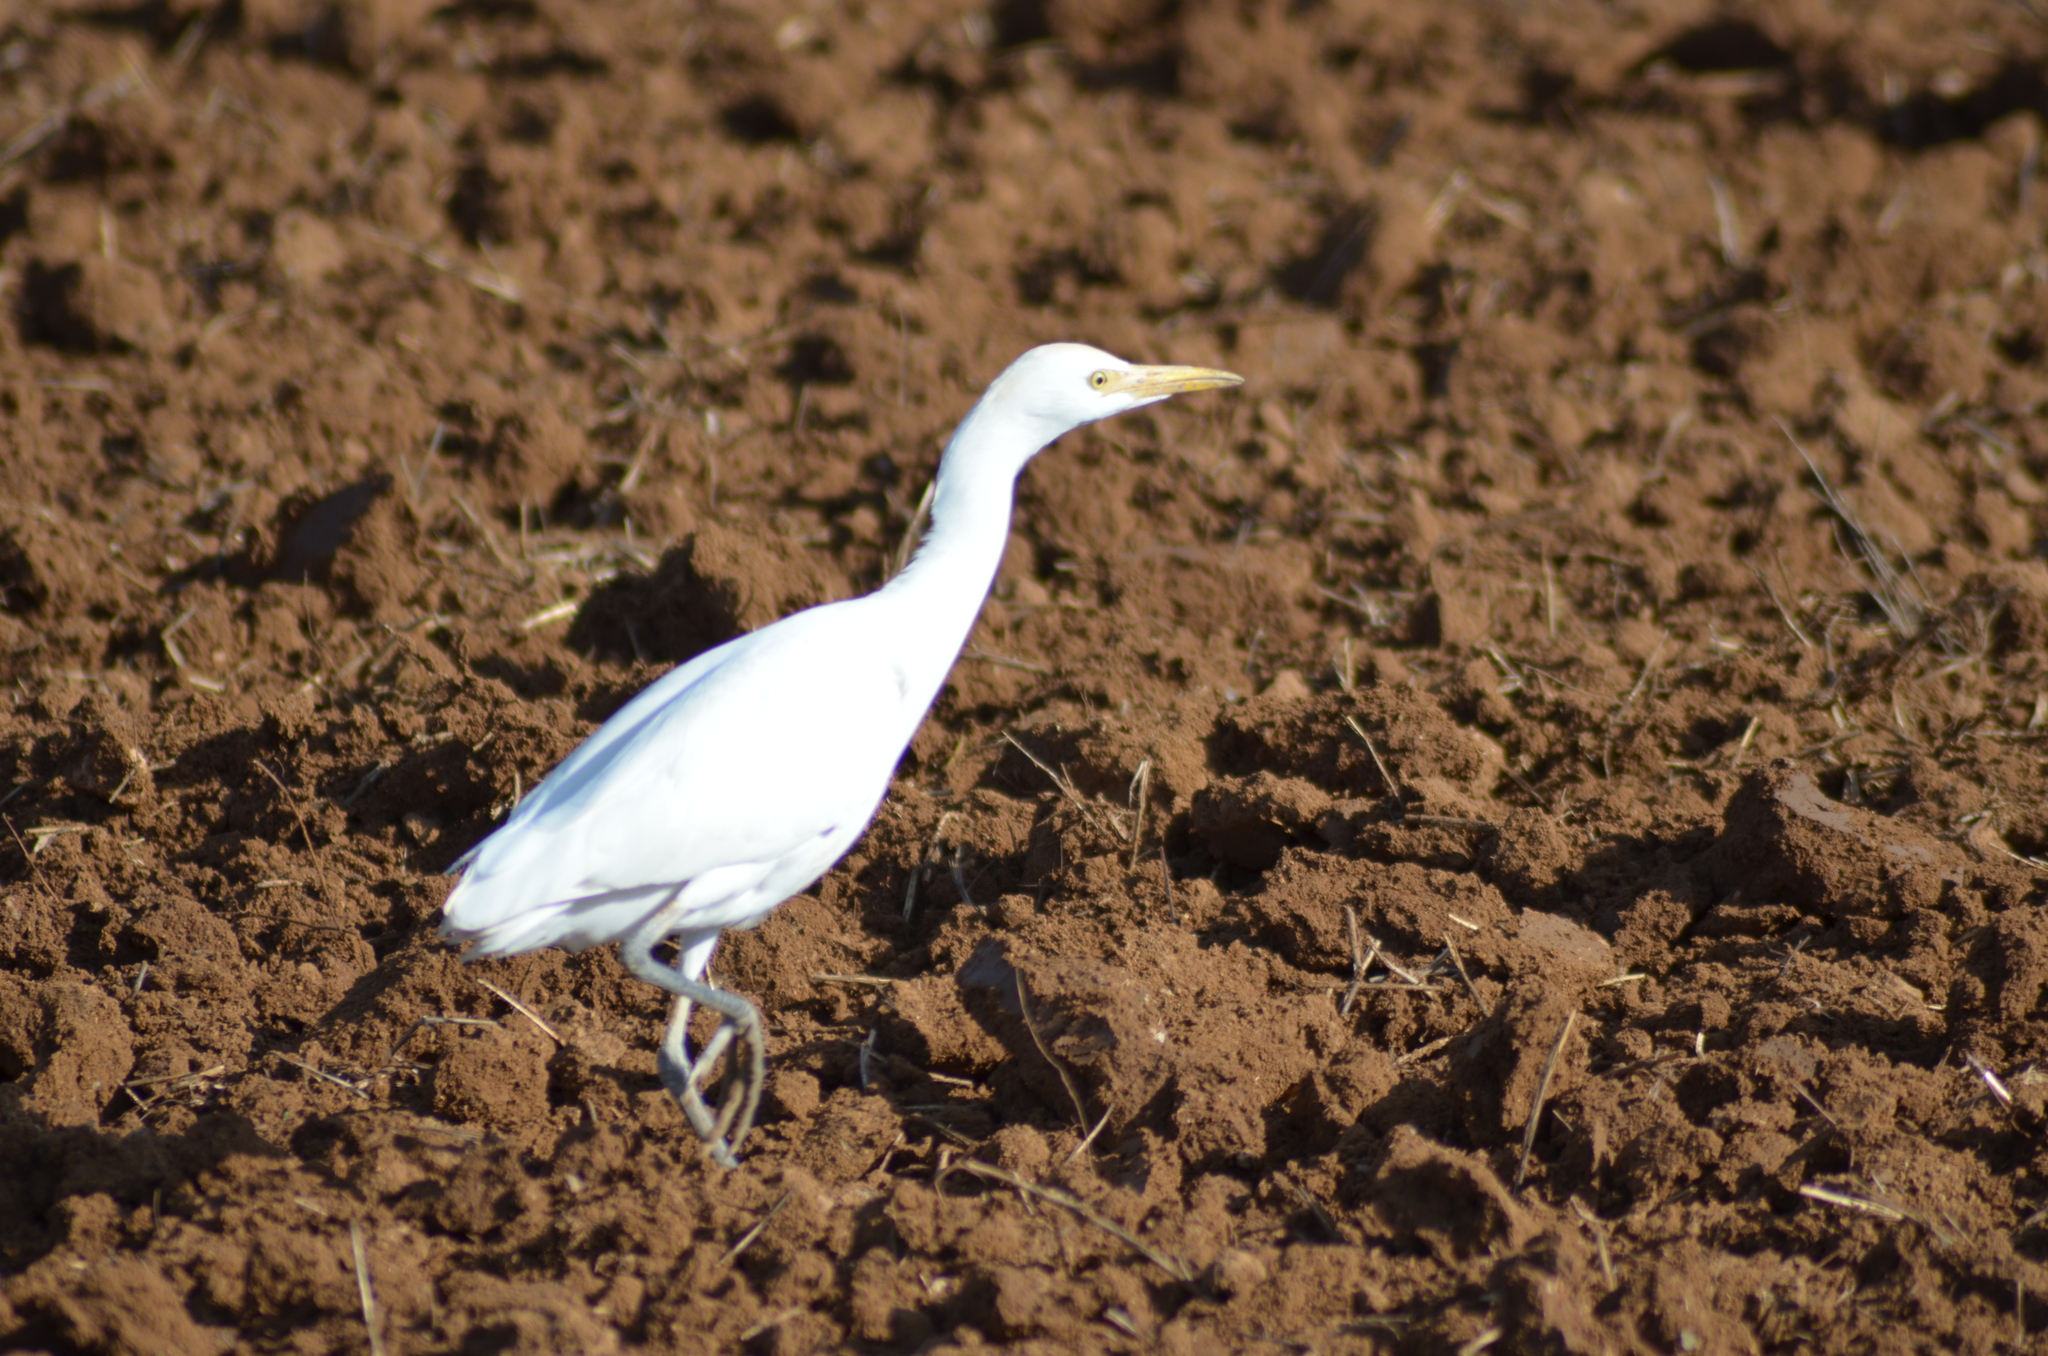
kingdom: Animalia
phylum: Chordata
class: Aves
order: Pelecaniformes
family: Ardeidae
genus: Bubulcus
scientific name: Bubulcus ibis
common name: Cattle egret
